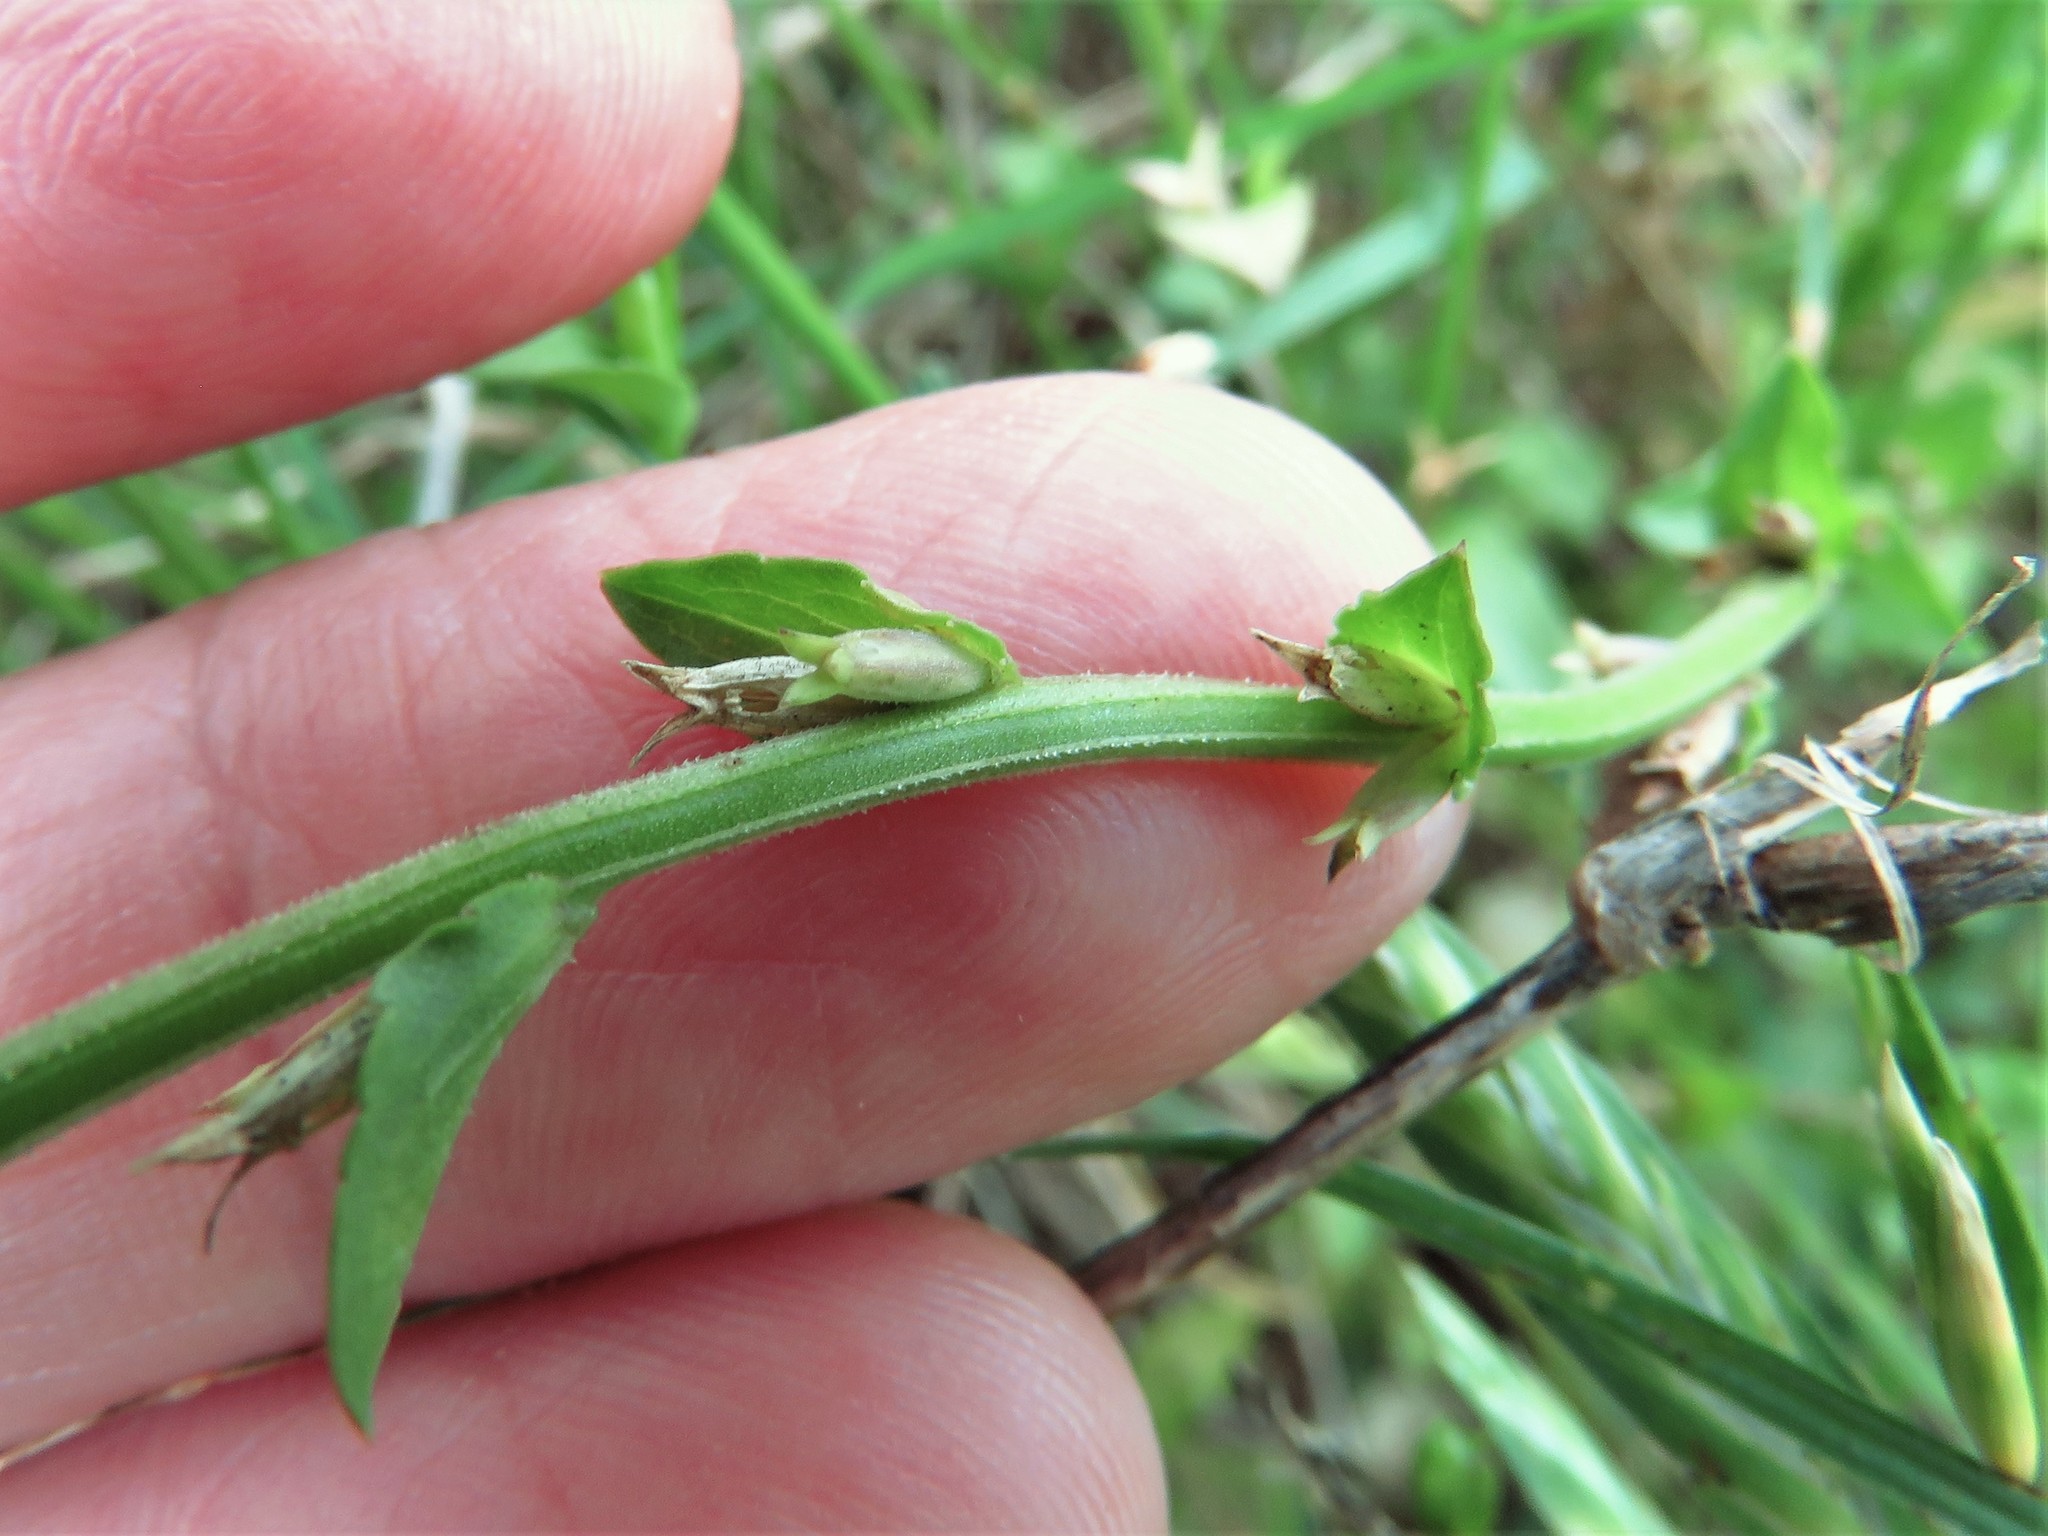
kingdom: Plantae
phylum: Tracheophyta
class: Magnoliopsida
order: Asterales
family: Campanulaceae
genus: Triodanis
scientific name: Triodanis biflora
